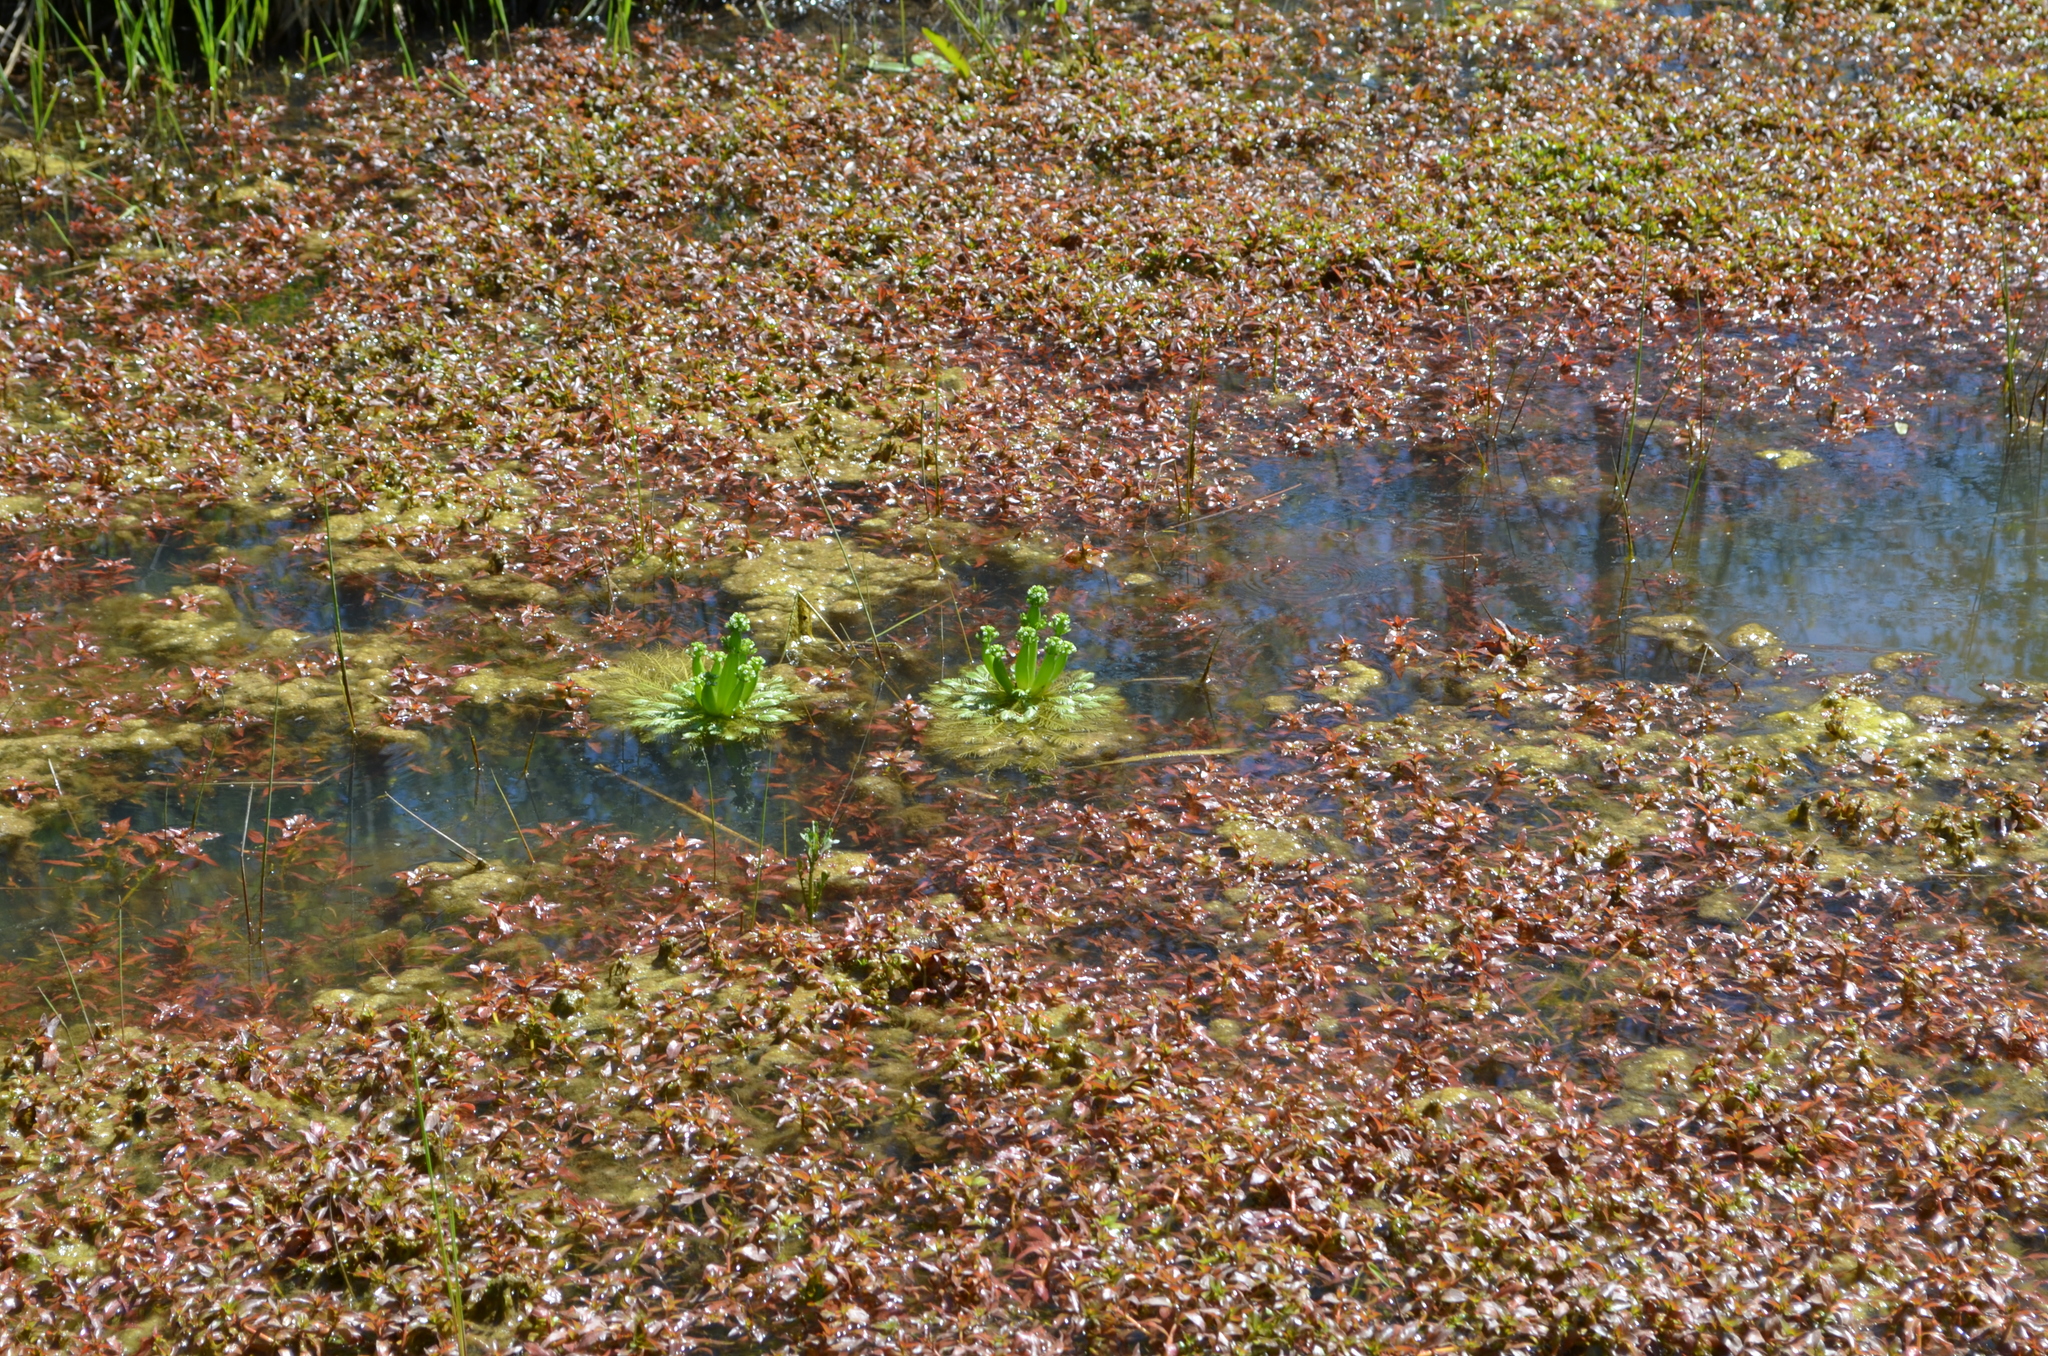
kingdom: Plantae
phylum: Tracheophyta
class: Magnoliopsida
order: Ericales
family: Primulaceae
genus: Hottonia
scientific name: Hottonia inflata
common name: American featherfoil
